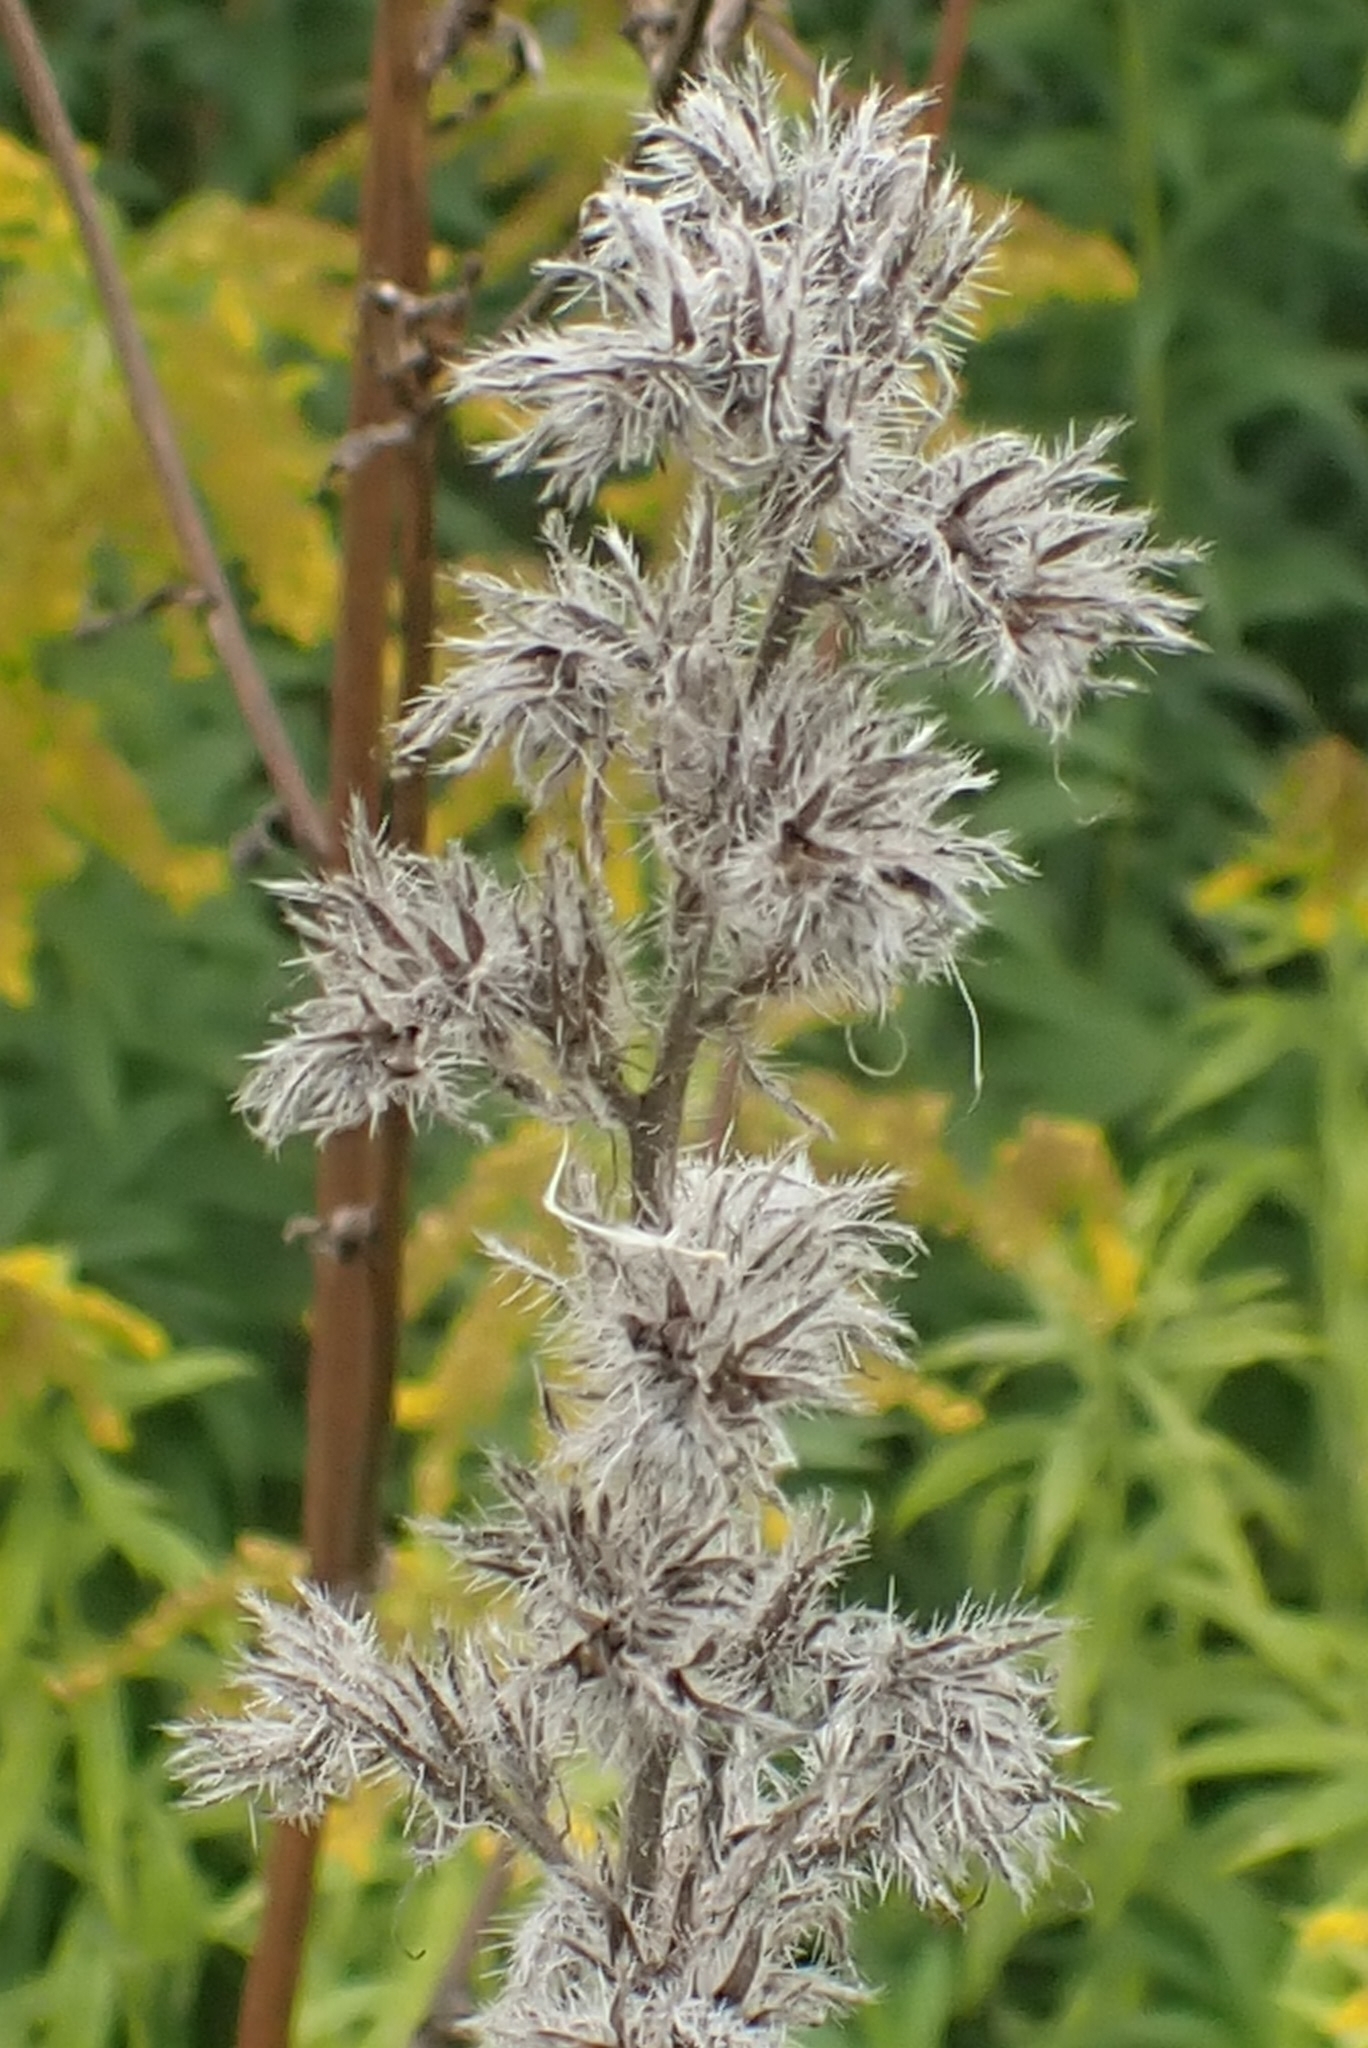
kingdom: Plantae
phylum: Tracheophyta
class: Magnoliopsida
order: Boraginales
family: Boraginaceae
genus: Echium
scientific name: Echium vulgare
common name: Common viper's bugloss
